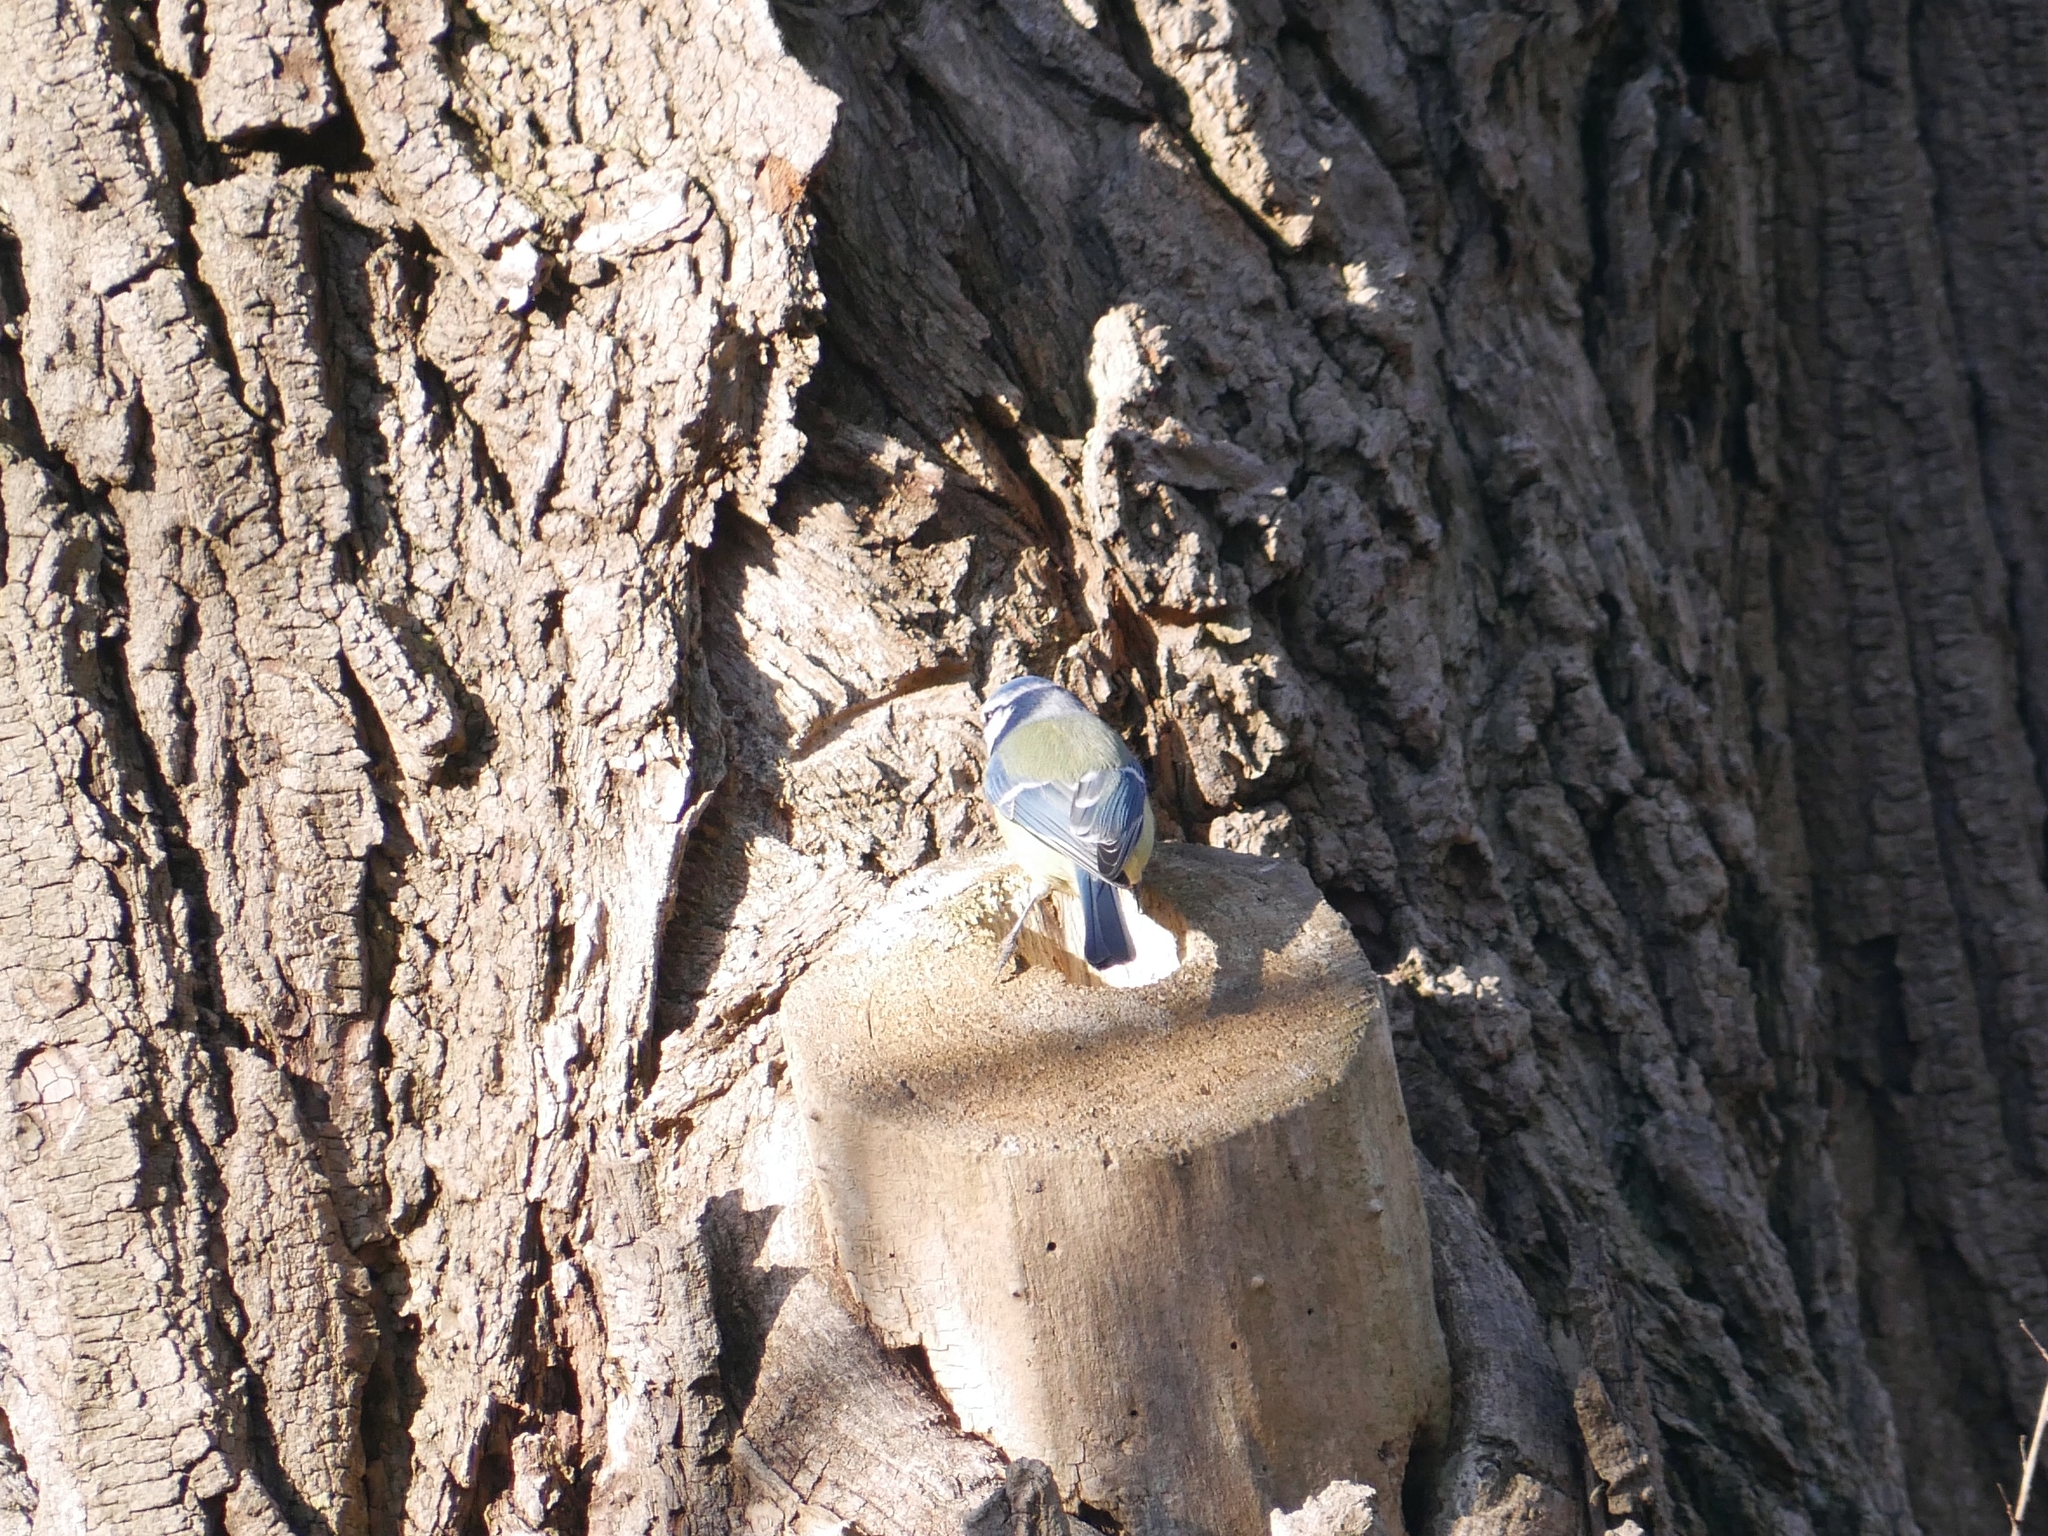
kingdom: Animalia
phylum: Chordata
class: Aves
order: Passeriformes
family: Paridae
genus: Cyanistes
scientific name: Cyanistes caeruleus
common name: Eurasian blue tit
